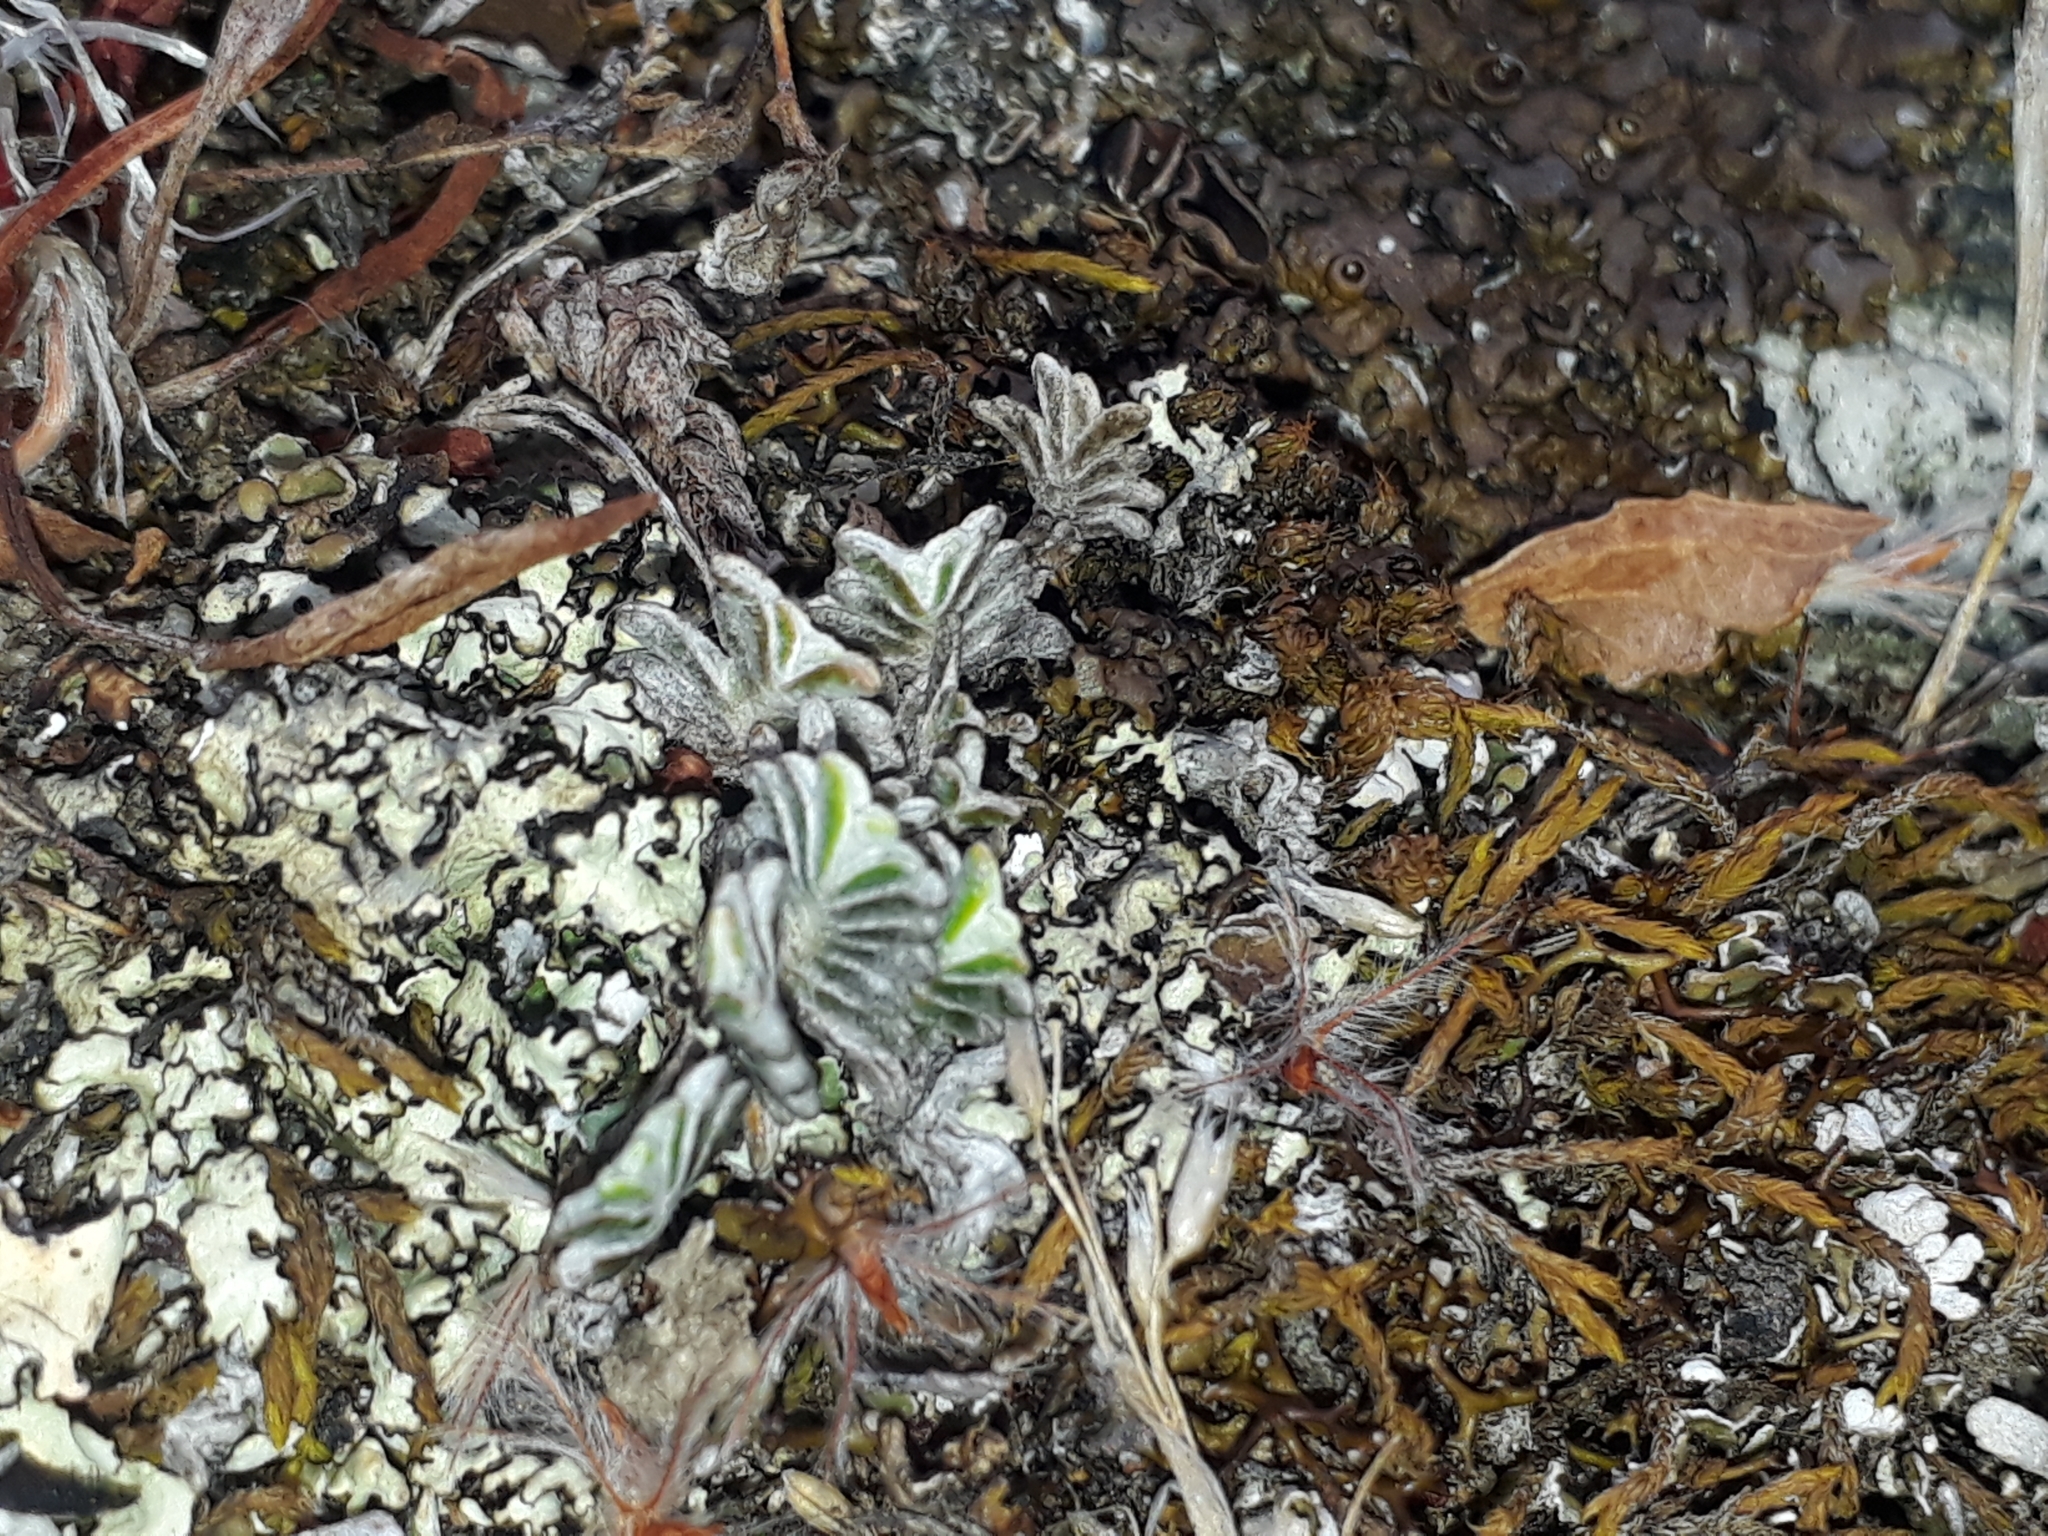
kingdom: Plantae
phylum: Tracheophyta
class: Magnoliopsida
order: Asterales
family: Asteraceae
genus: Raoulia
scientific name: Raoulia monroi
